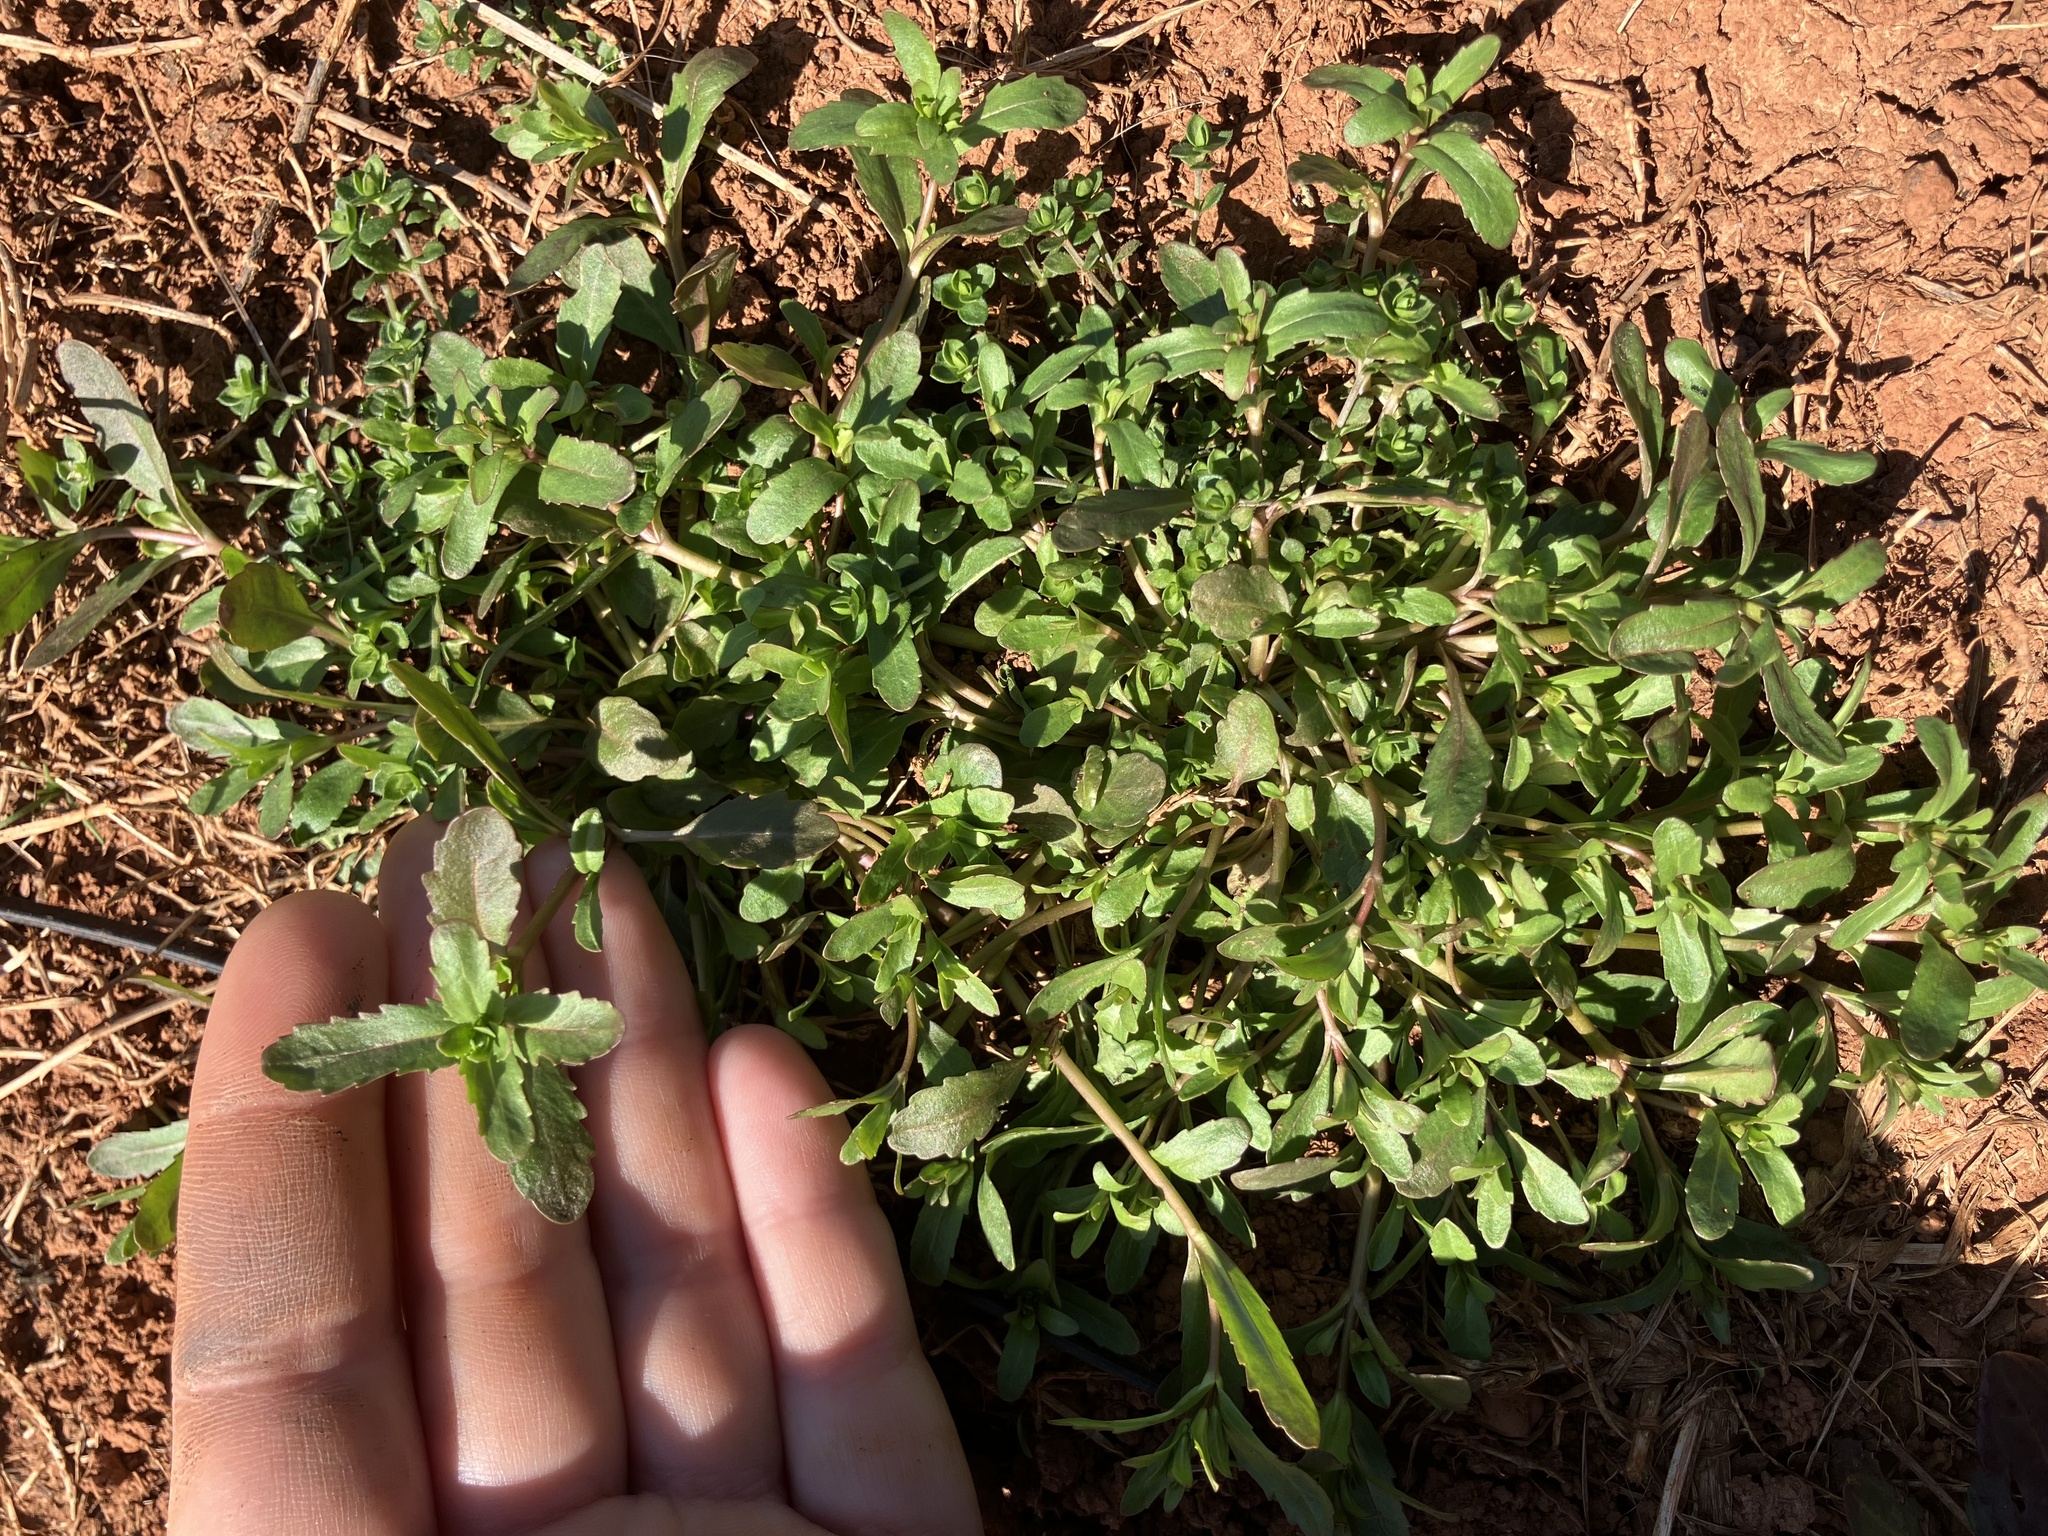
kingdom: Plantae
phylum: Tracheophyta
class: Magnoliopsida
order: Lamiales
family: Plantaginaceae
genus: Veronica
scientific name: Veronica peregrina
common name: Neckweed
